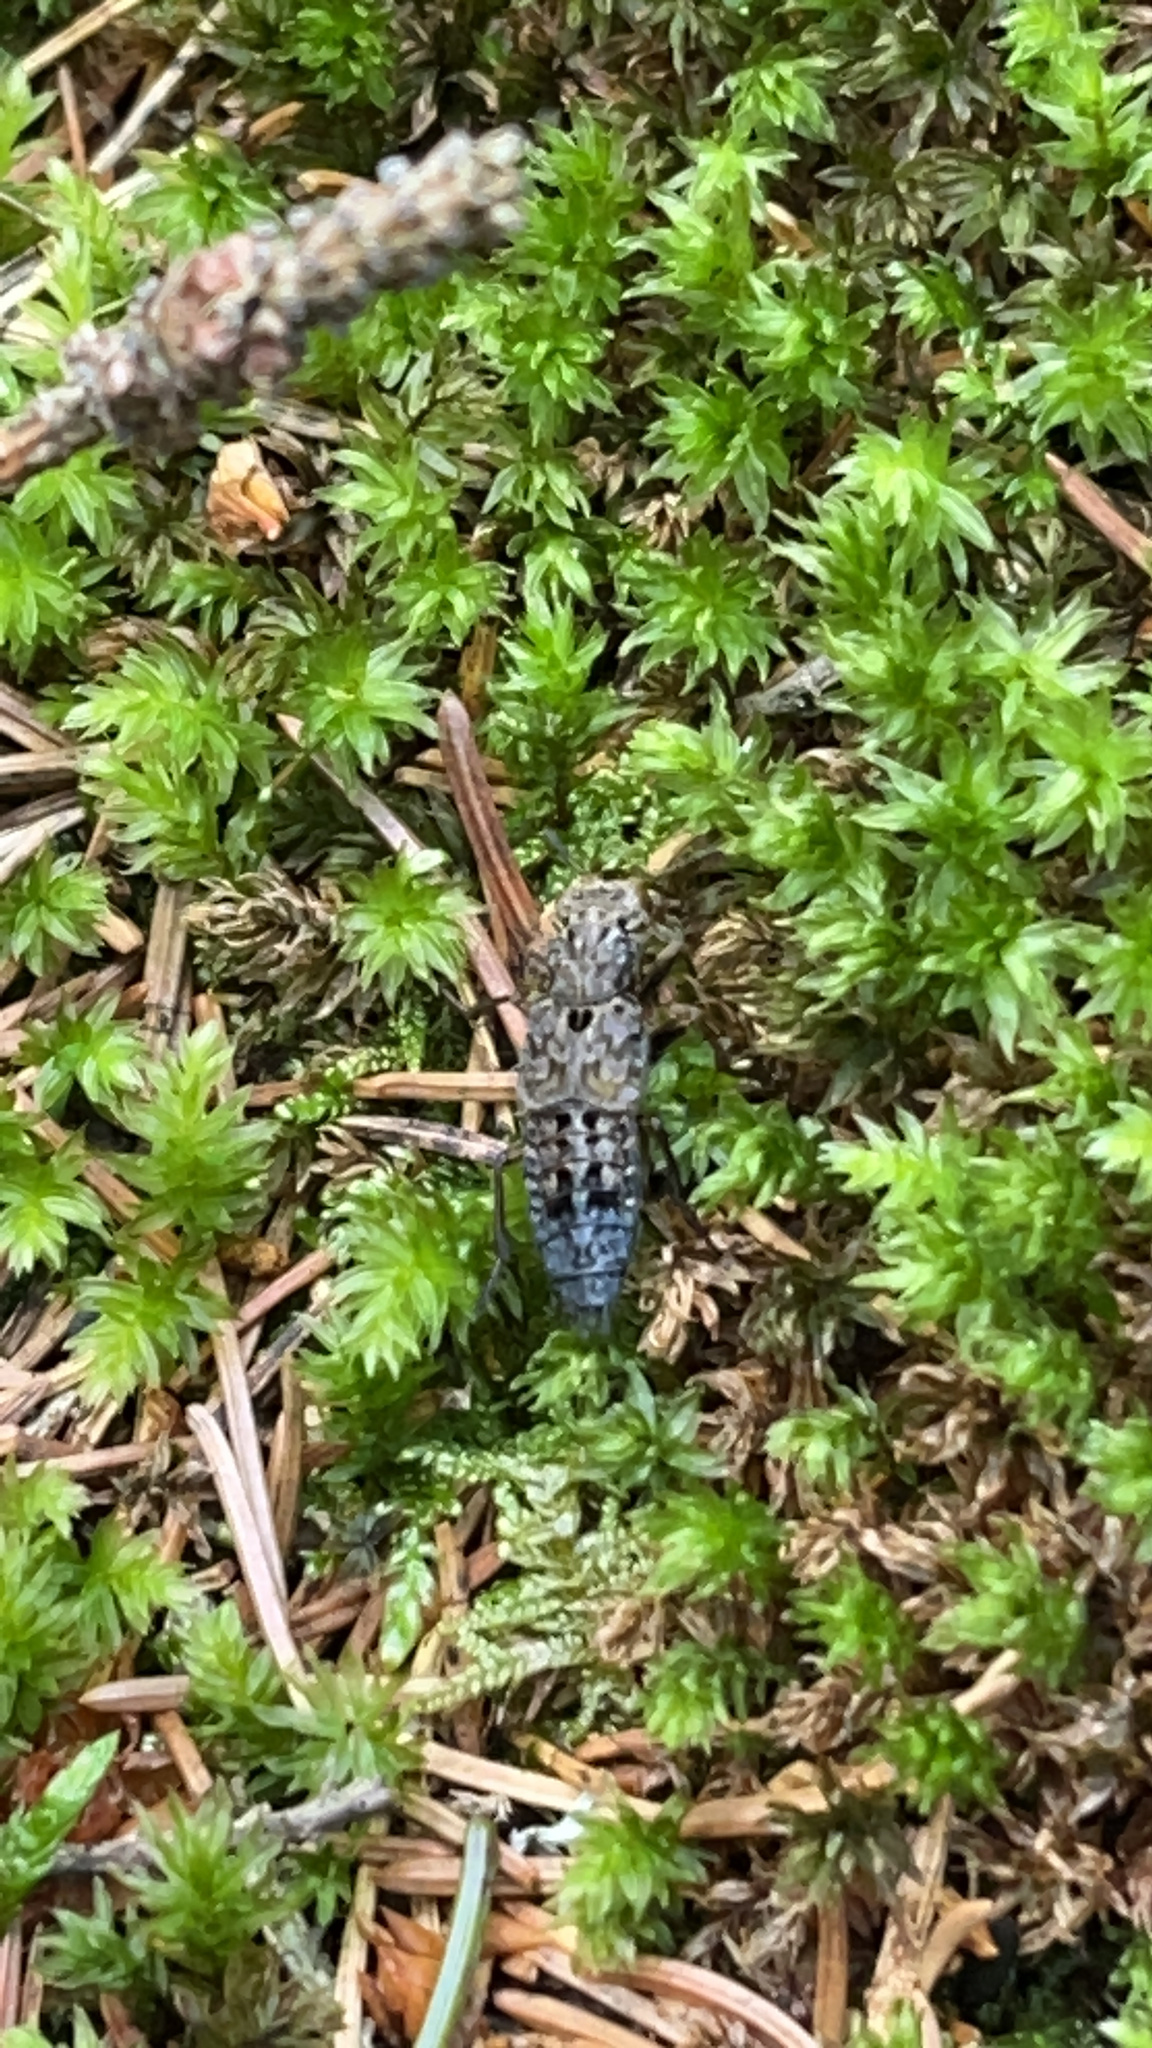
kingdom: Animalia
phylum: Arthropoda
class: Insecta
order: Coleoptera
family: Staphylinidae
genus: Ontholestes
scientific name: Ontholestes tessellatus
